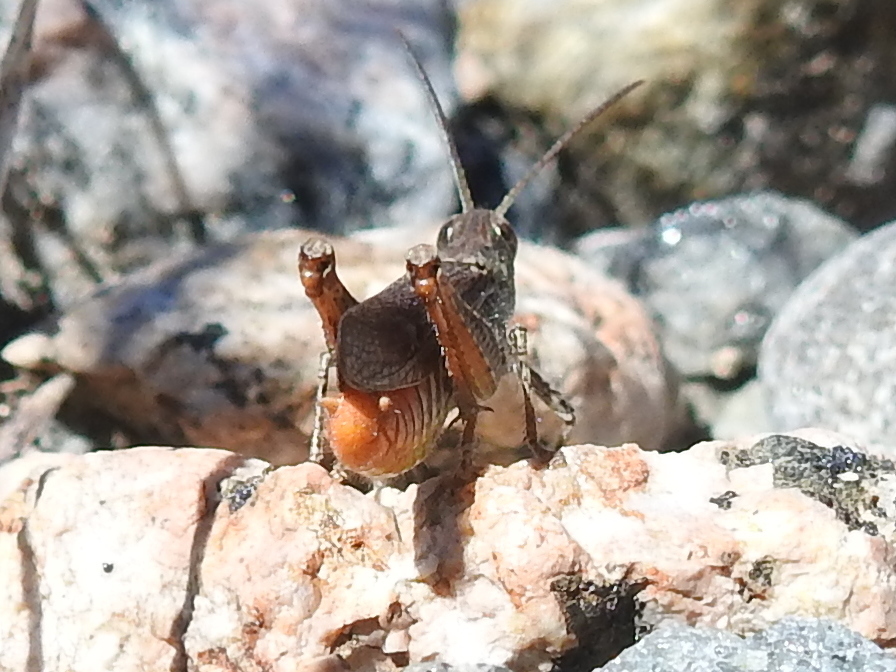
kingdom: Animalia
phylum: Arthropoda
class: Insecta
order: Orthoptera
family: Acrididae
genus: Chorthippus
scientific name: Chorthippus brunneus
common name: Field grasshopper
